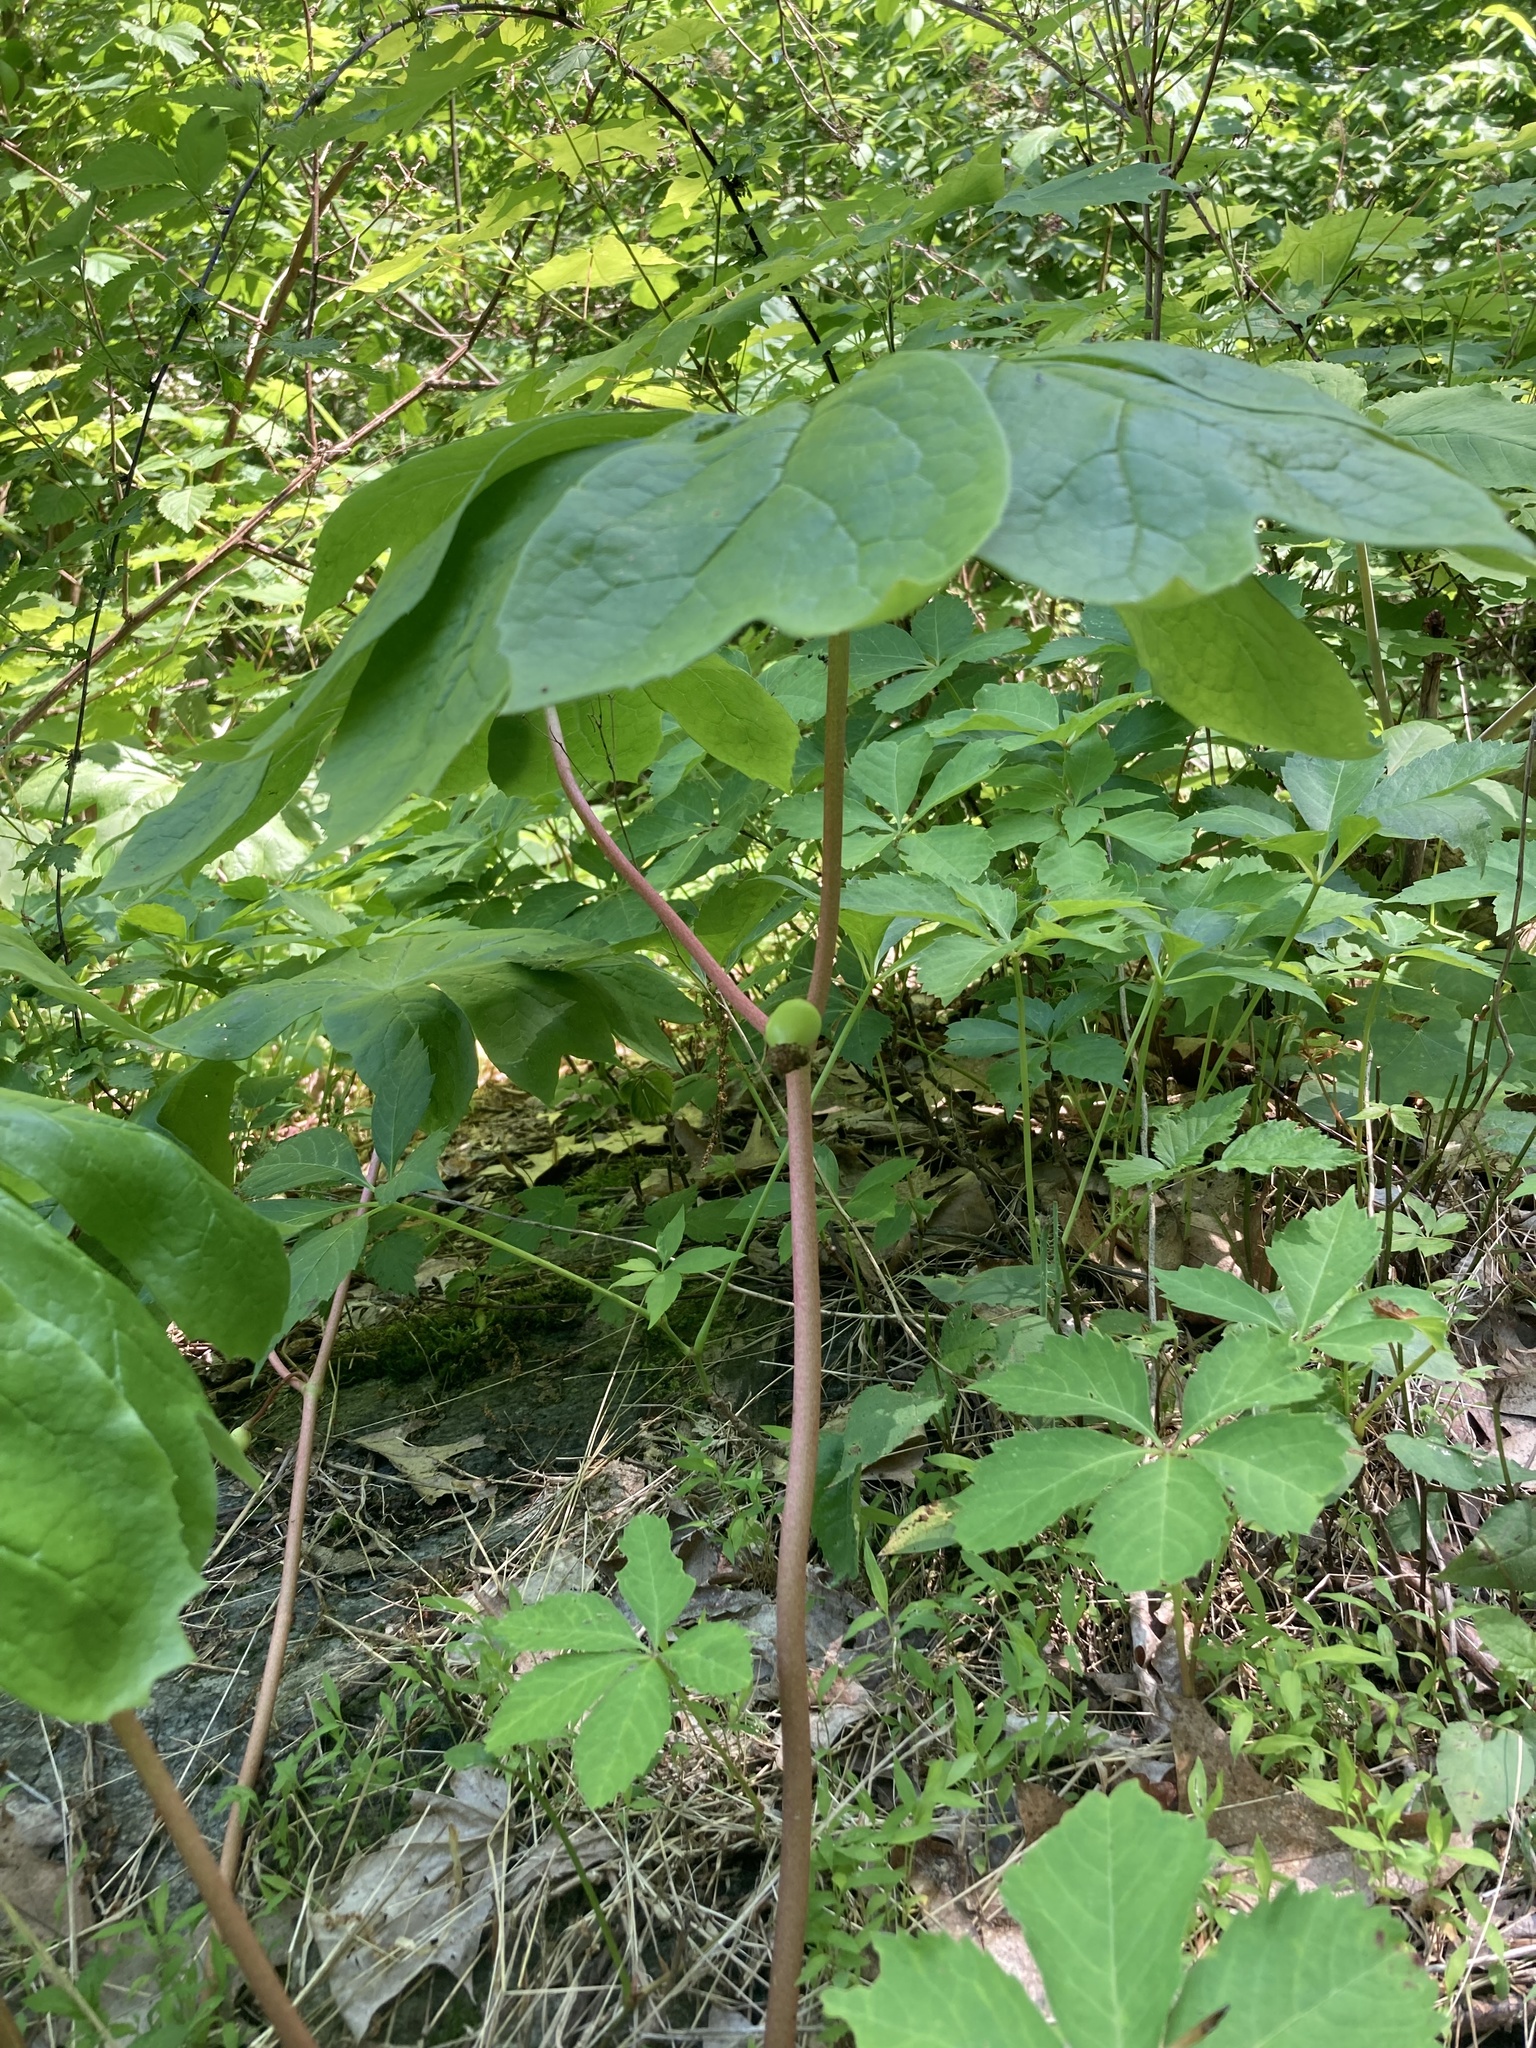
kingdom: Plantae
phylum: Tracheophyta
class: Magnoliopsida
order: Ranunculales
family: Berberidaceae
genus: Podophyllum
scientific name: Podophyllum peltatum
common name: Wild mandrake
